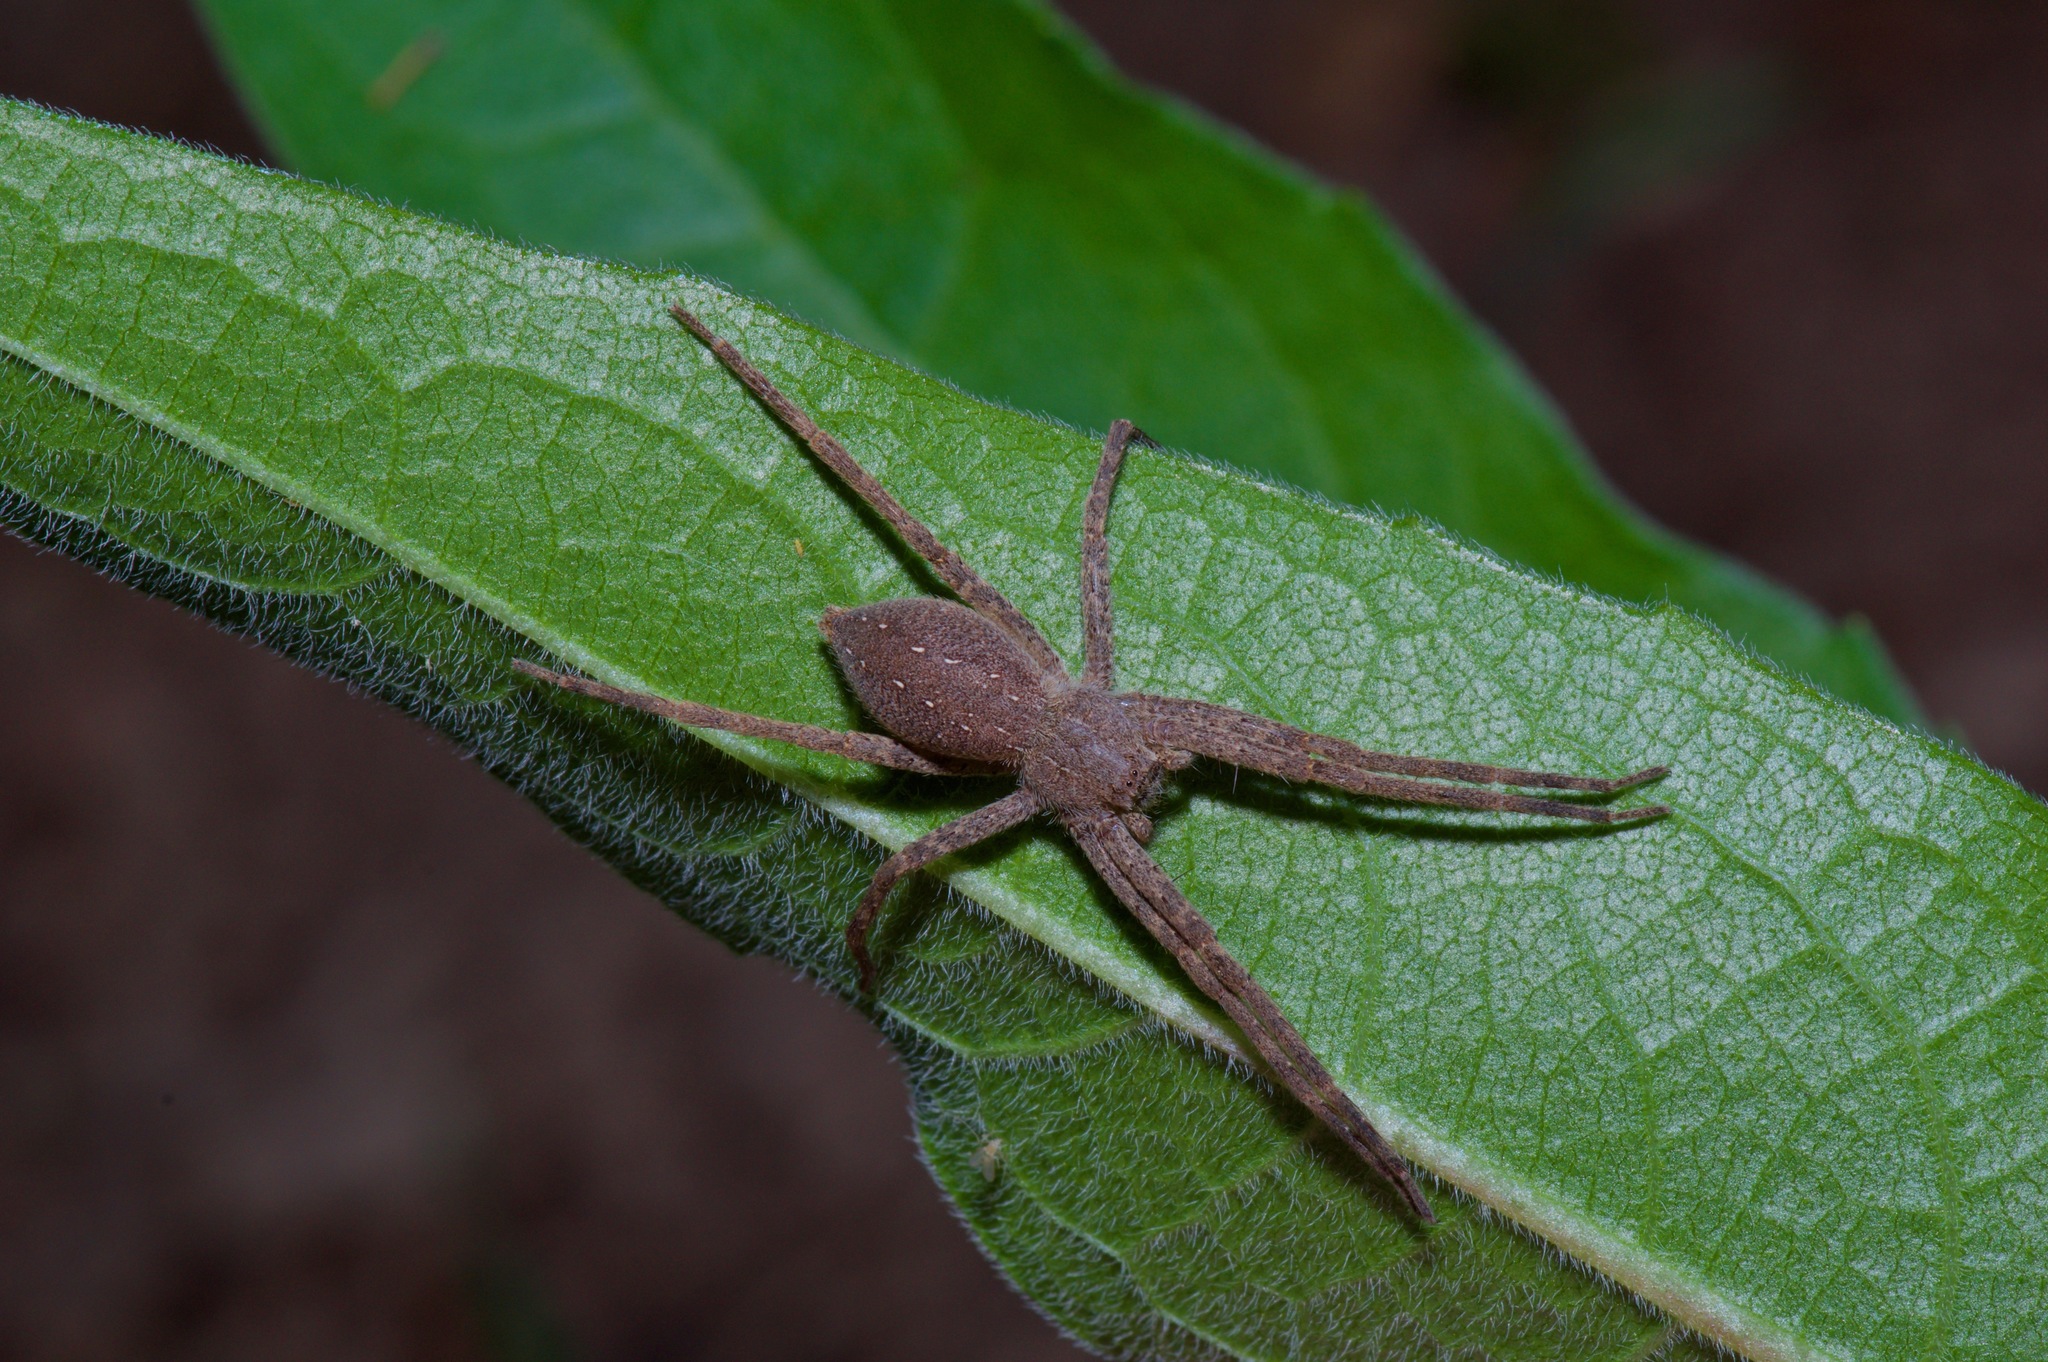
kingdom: Animalia
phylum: Arthropoda
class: Arachnida
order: Araneae
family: Pisauridae
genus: Pisaurina
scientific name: Pisaurina mira
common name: American nursery web spider
